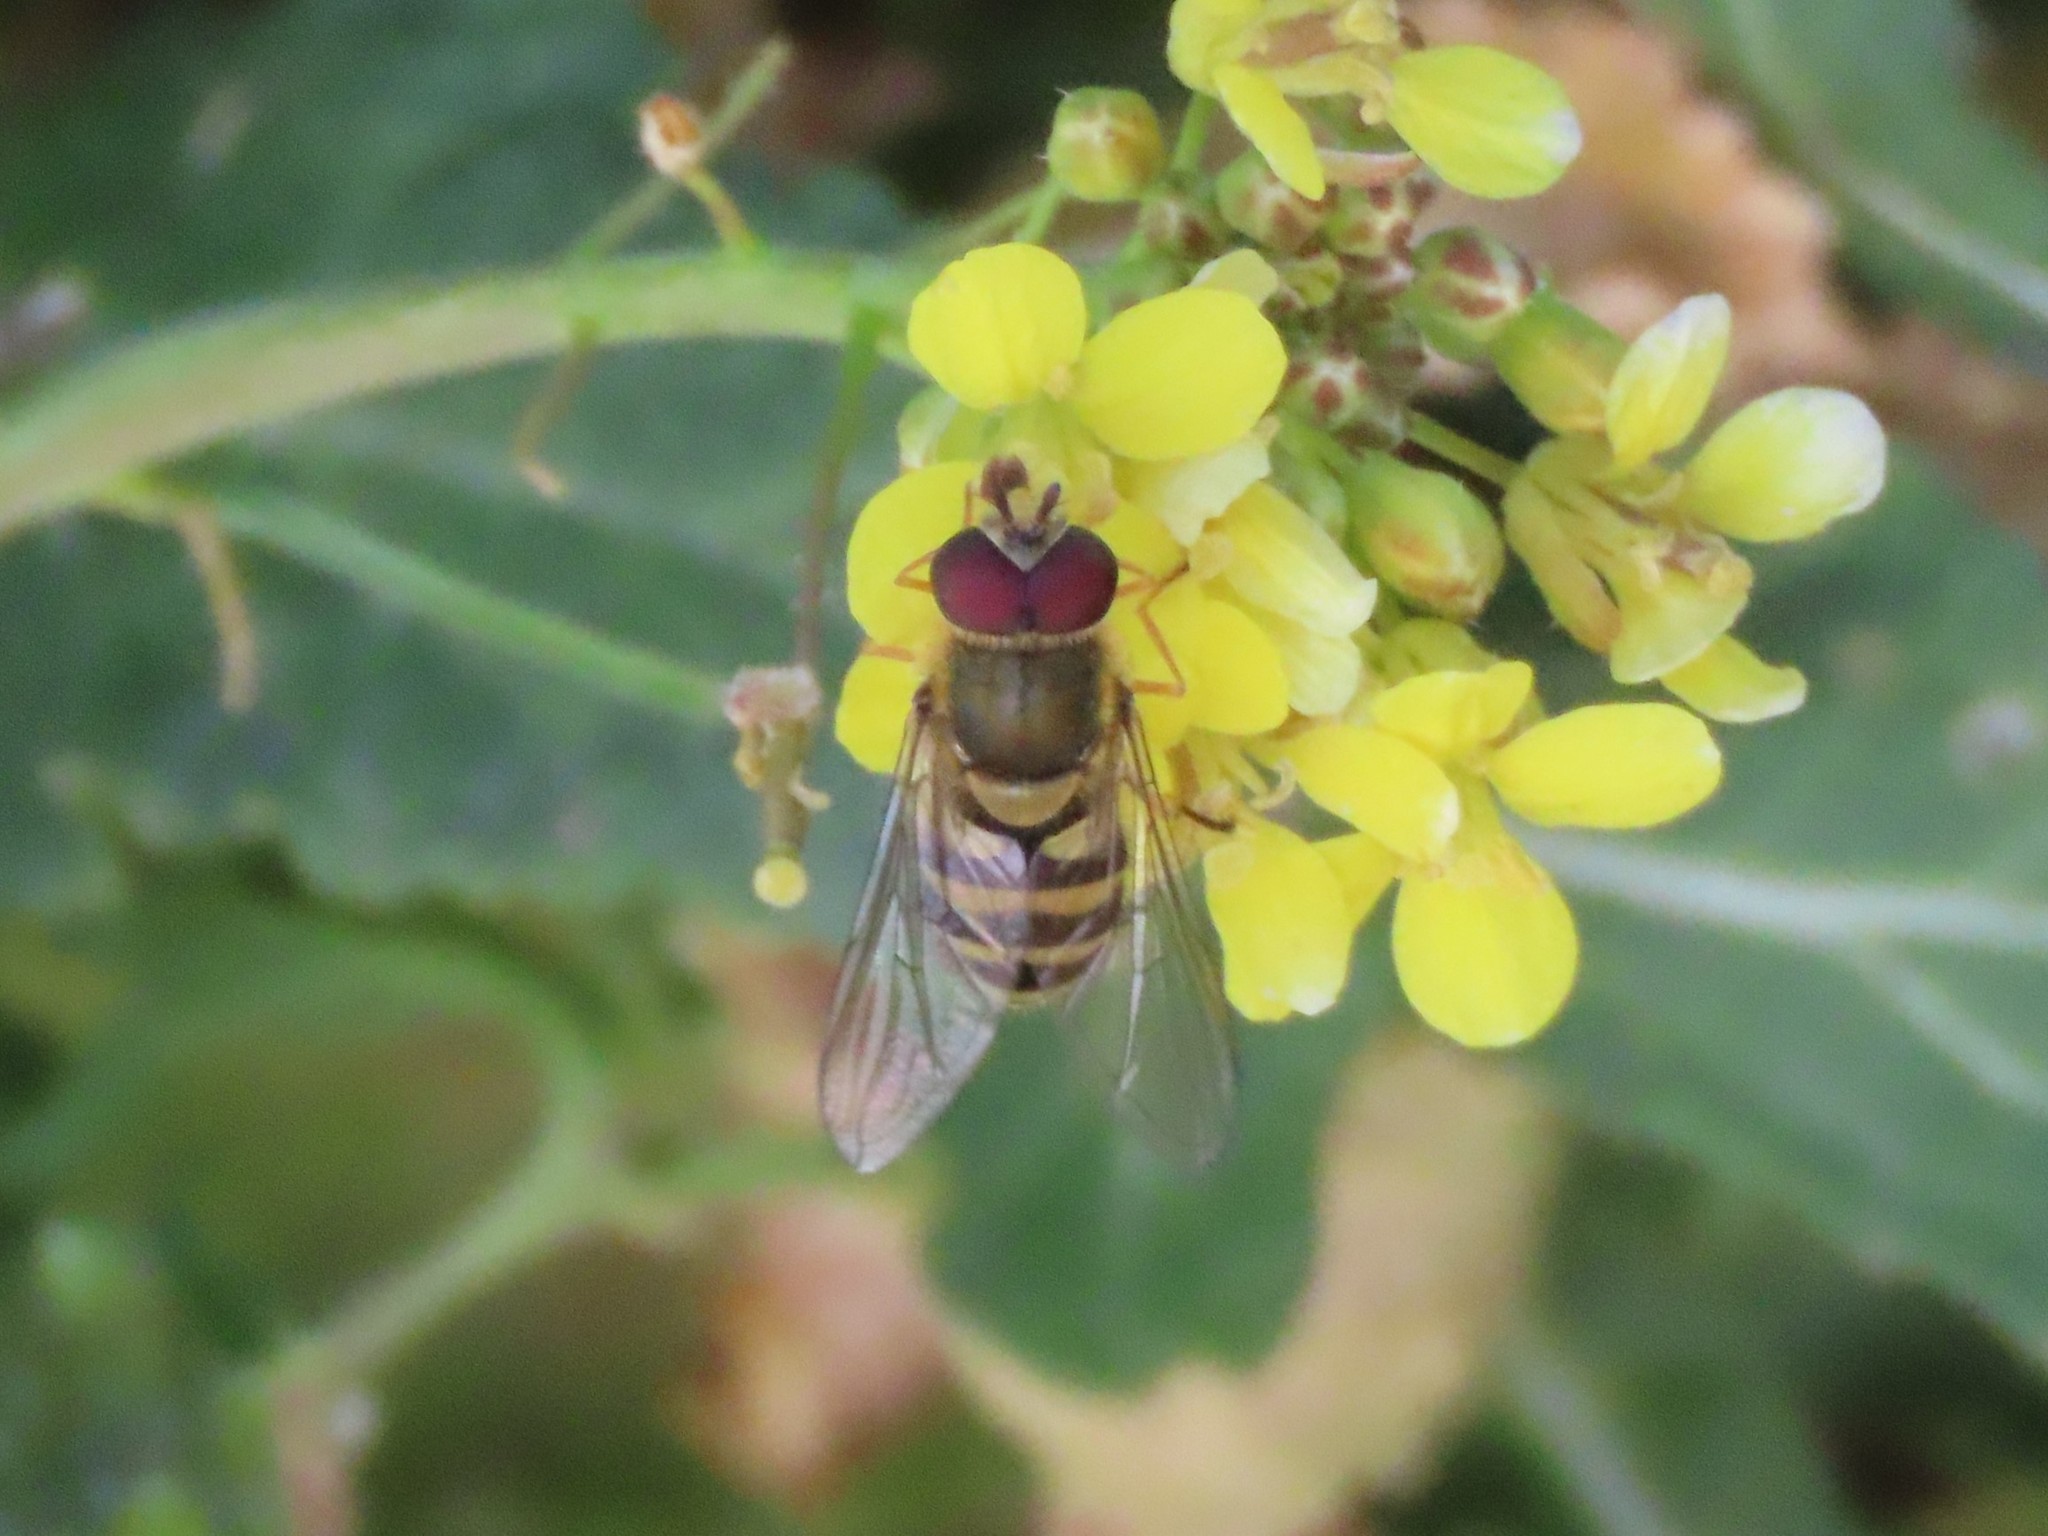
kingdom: Animalia
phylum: Arthropoda
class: Insecta
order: Diptera
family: Syrphidae
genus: Syrphus
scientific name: Syrphus
